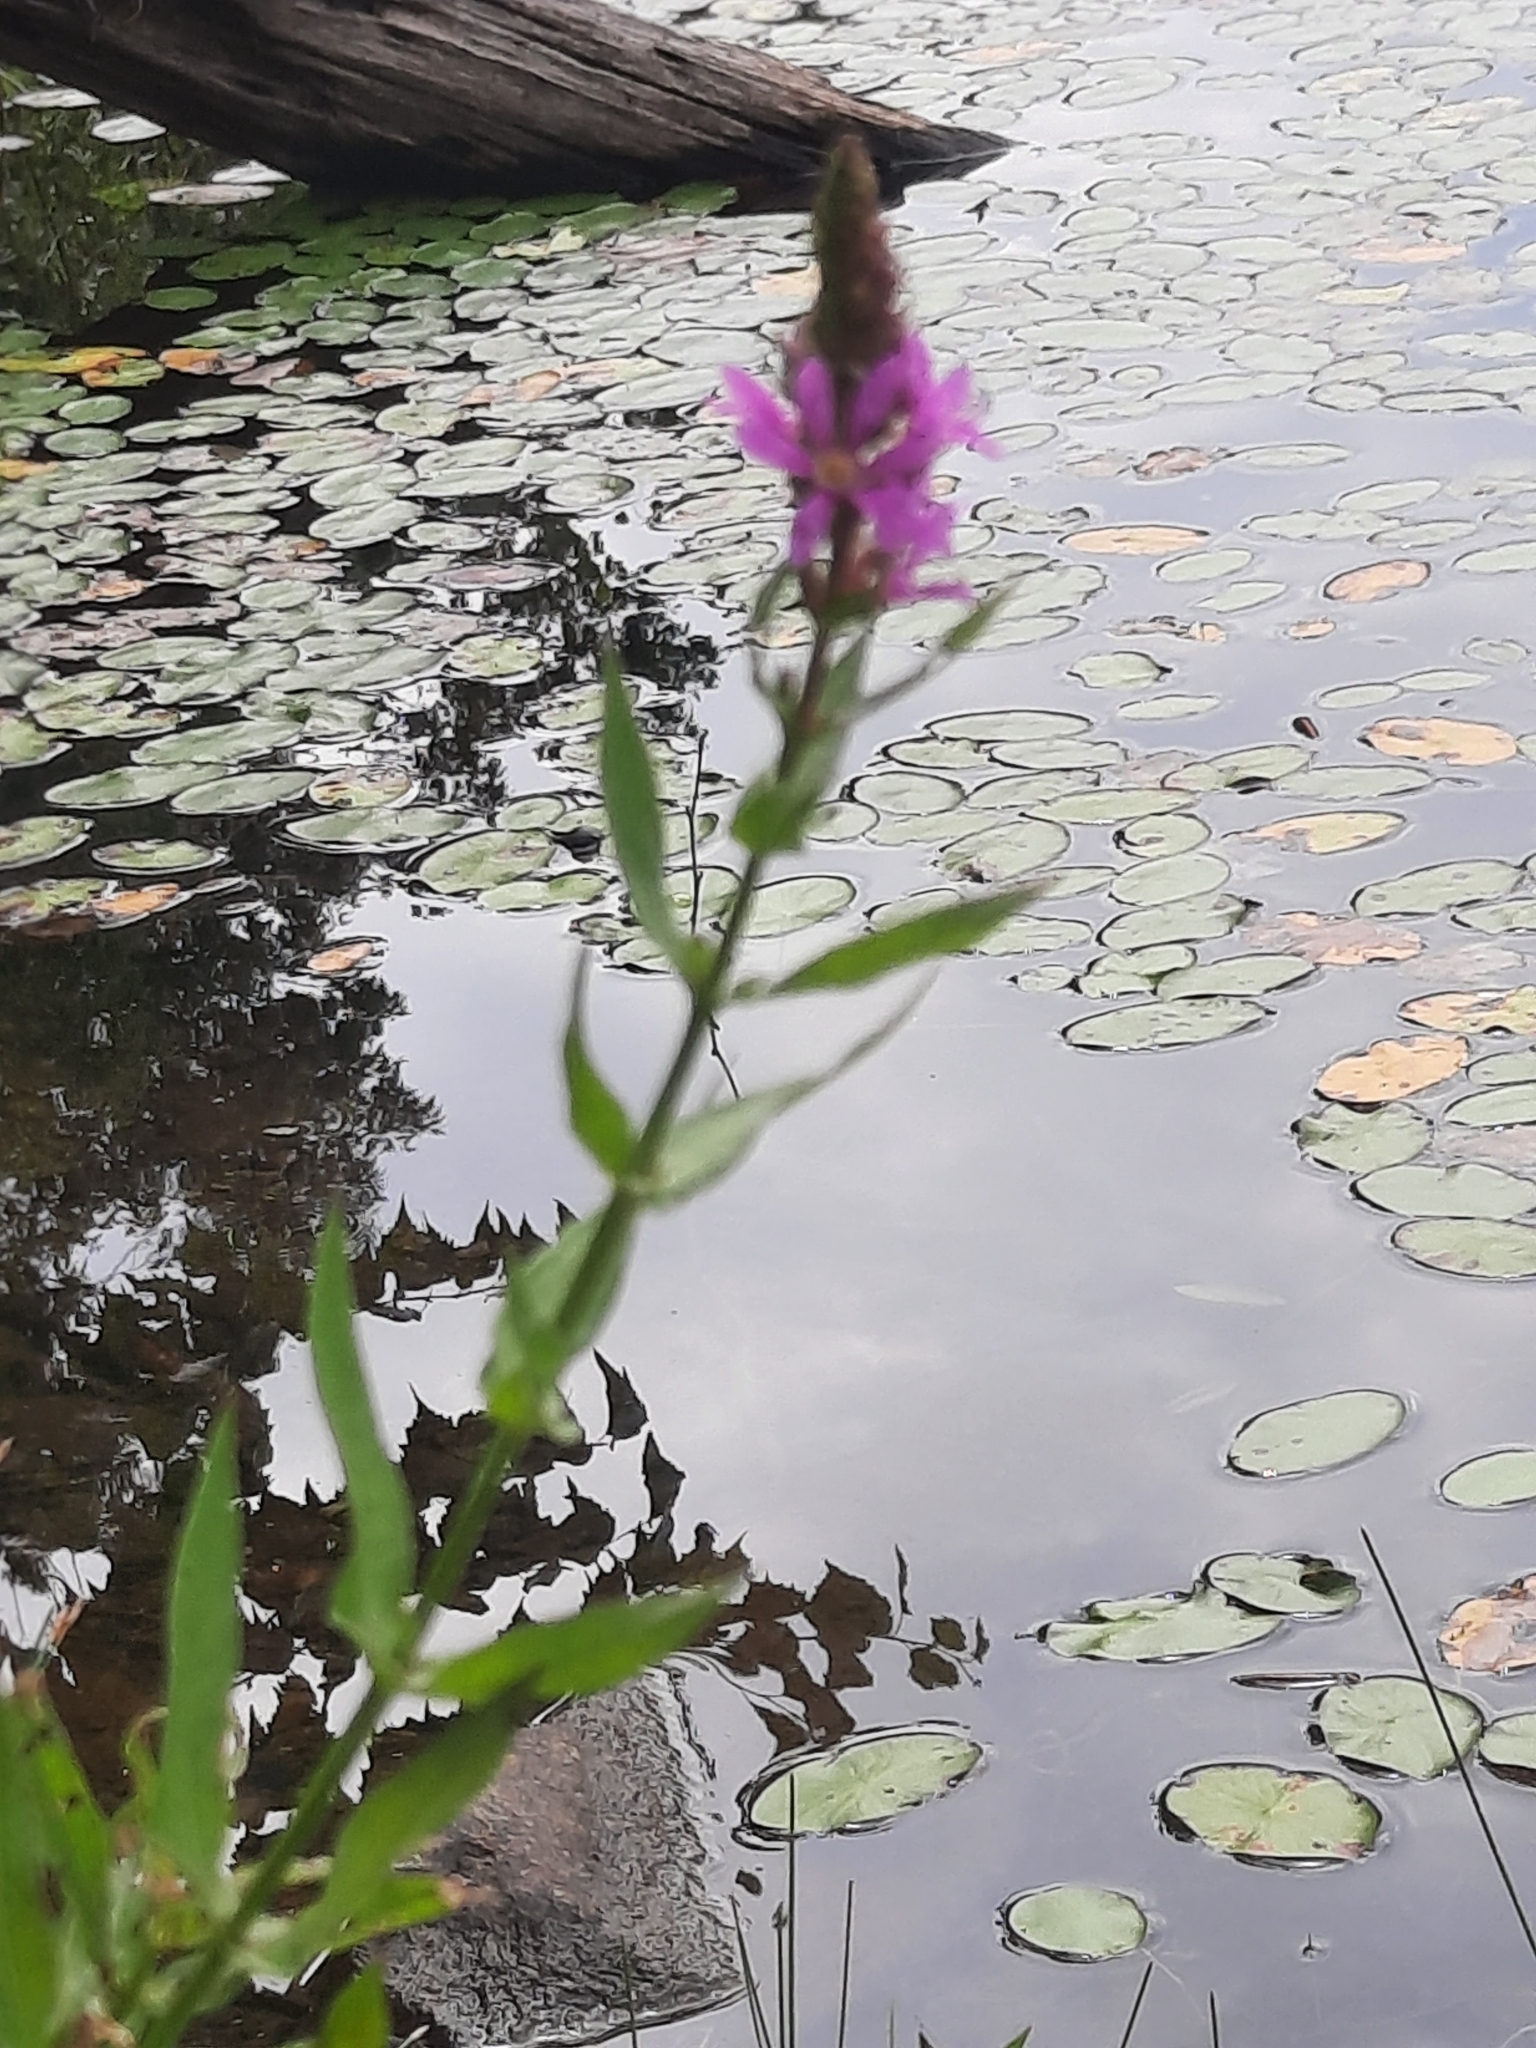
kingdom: Plantae
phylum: Tracheophyta
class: Magnoliopsida
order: Myrtales
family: Lythraceae
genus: Lythrum
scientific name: Lythrum salicaria
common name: Purple loosestrife
